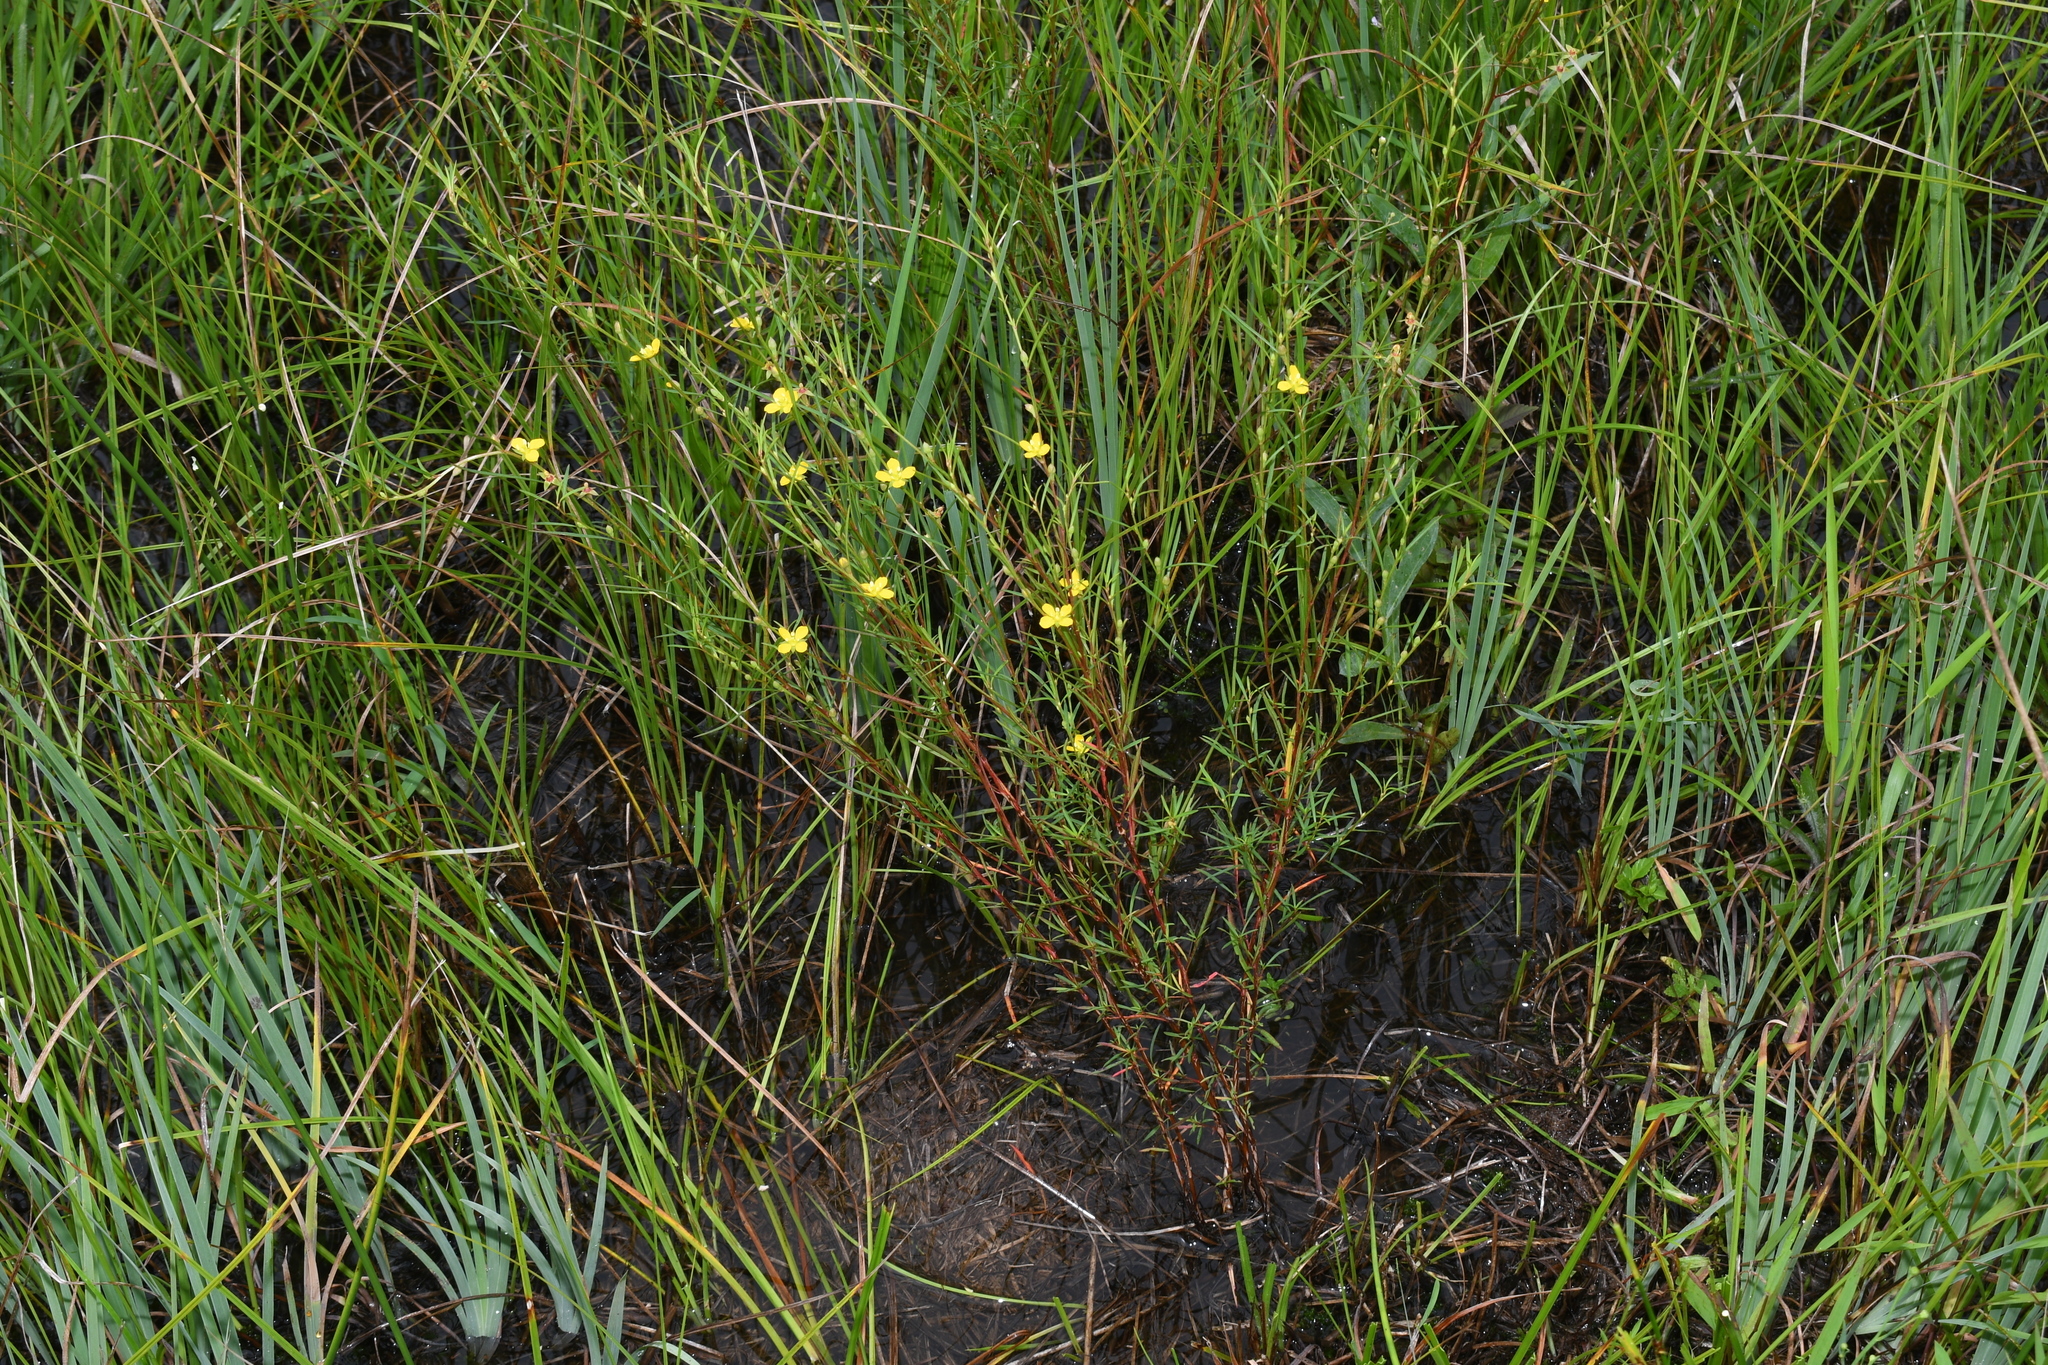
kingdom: Plantae
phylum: Tracheophyta
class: Magnoliopsida
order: Myrtales
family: Onagraceae
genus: Ludwigia
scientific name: Ludwigia linearis
